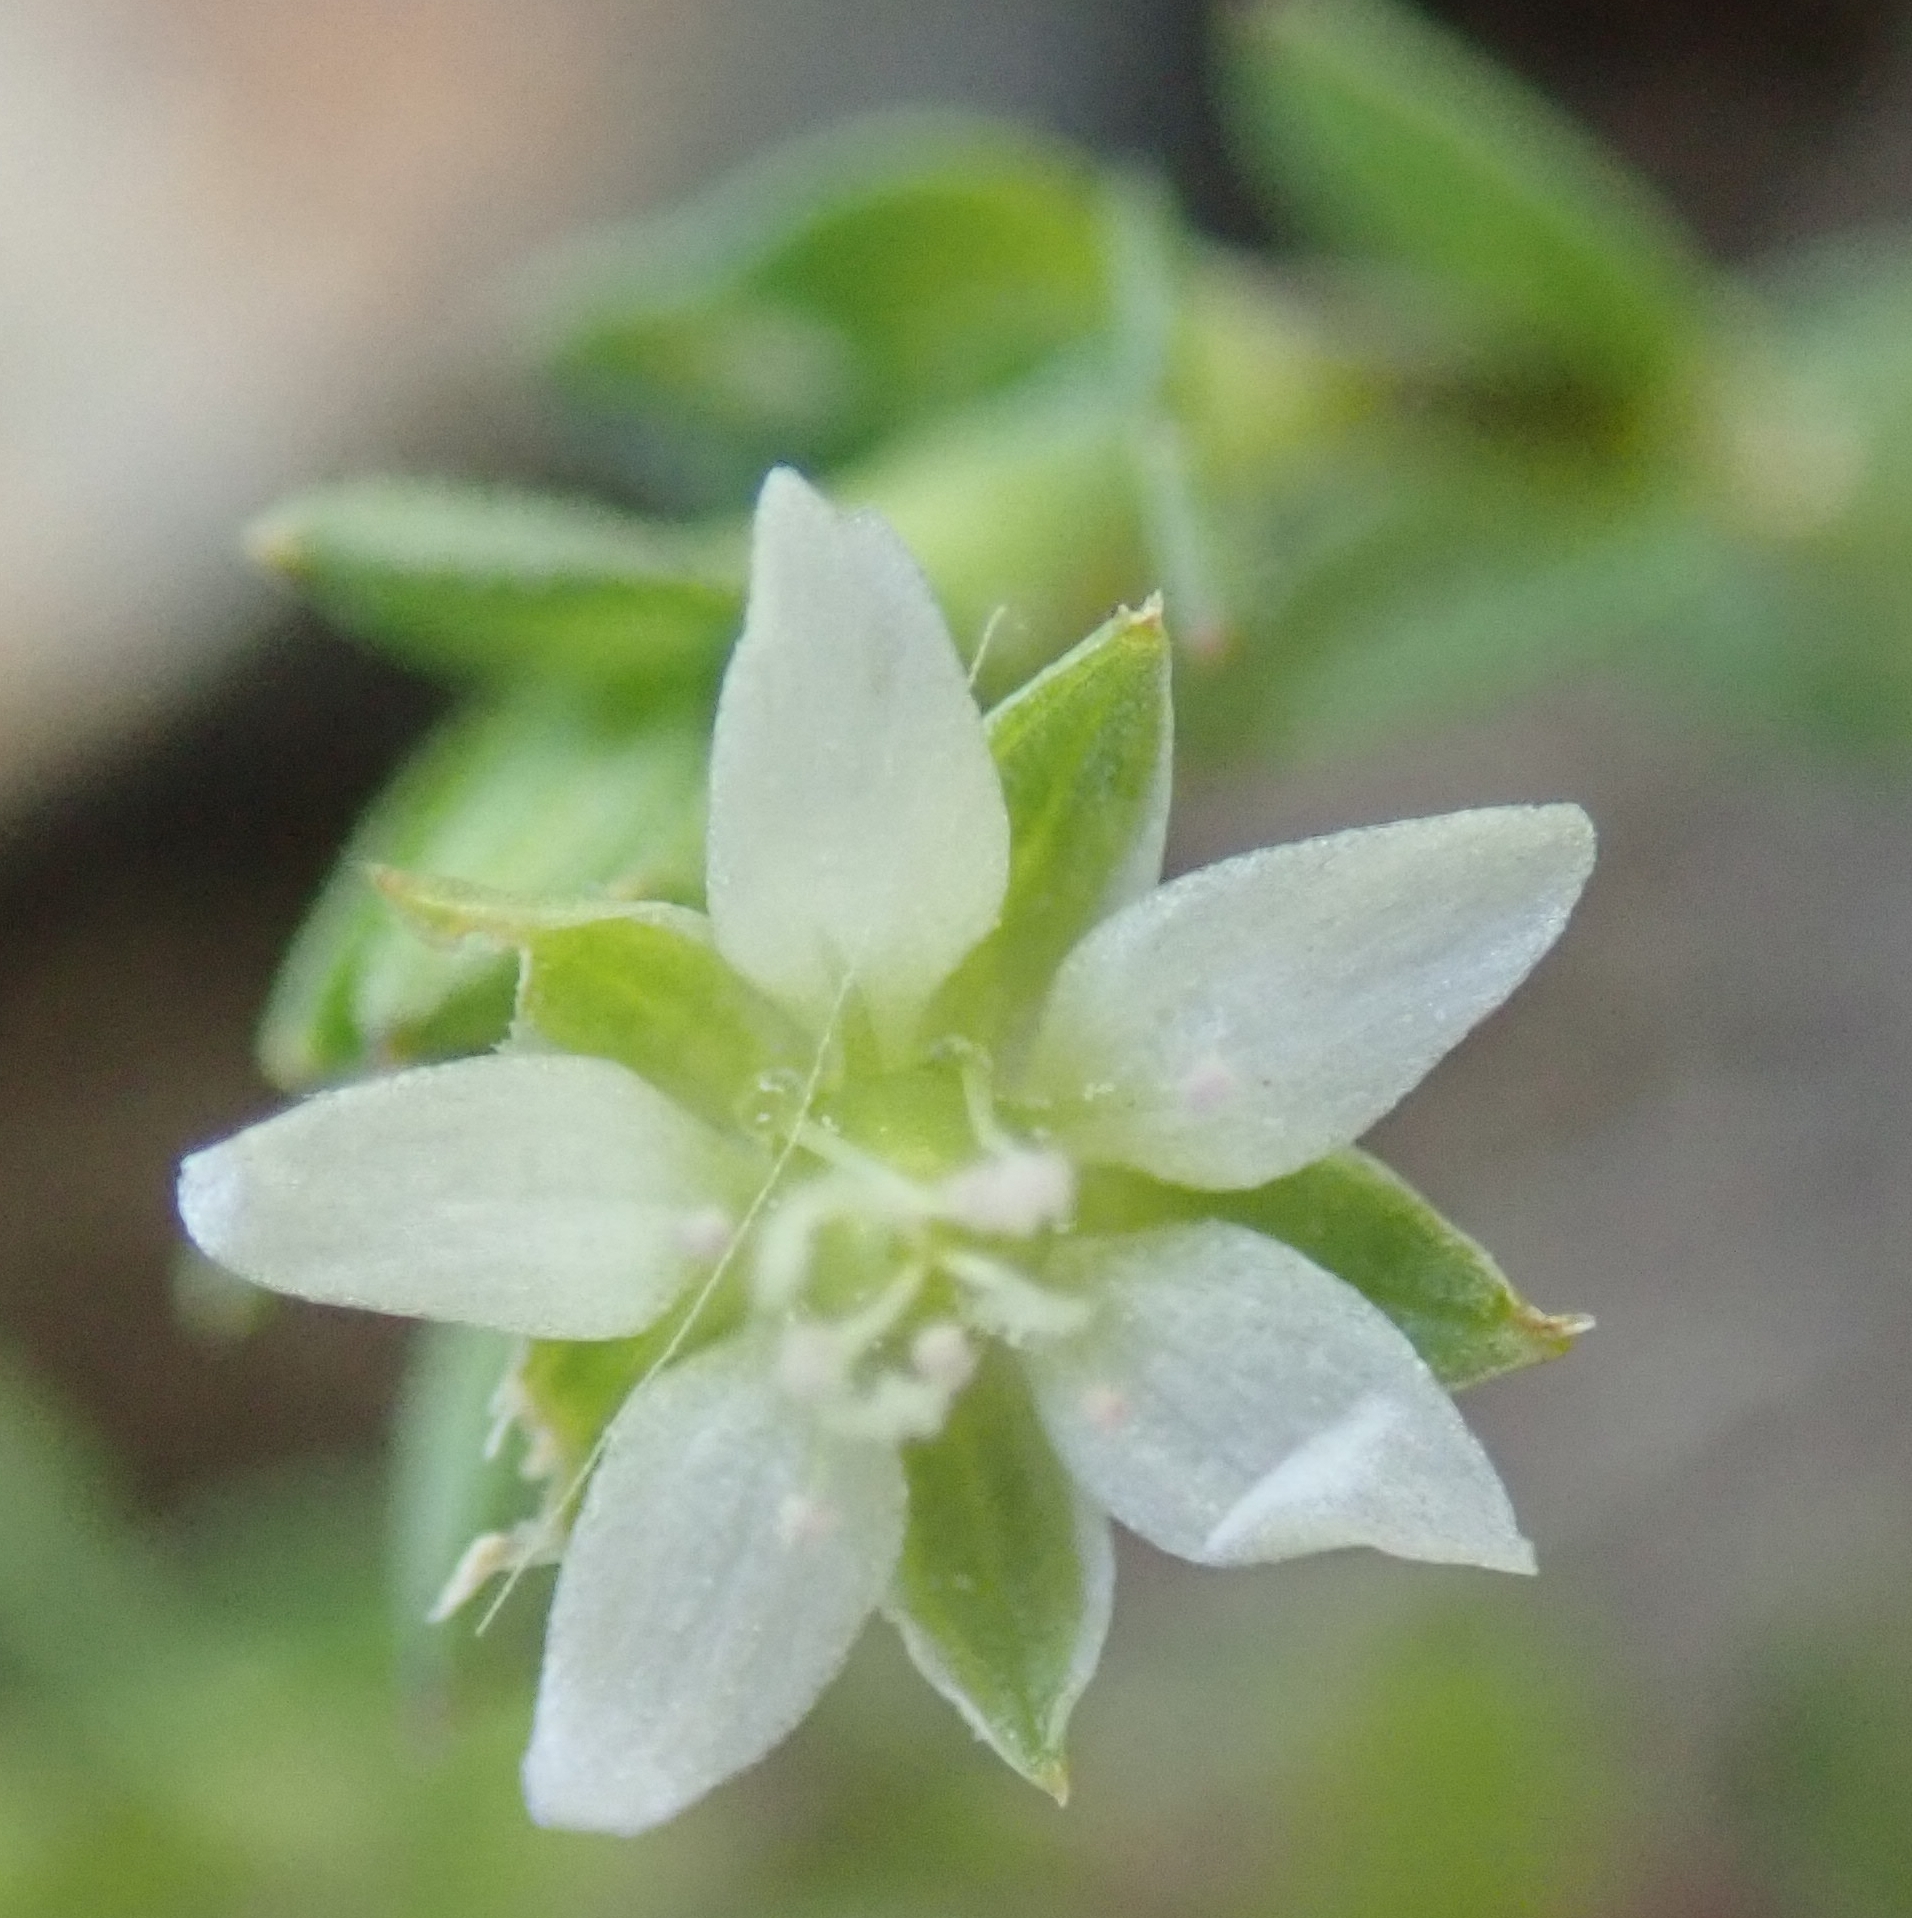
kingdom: Plantae
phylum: Tracheophyta
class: Magnoliopsida
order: Caryophyllales
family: Caryophyllaceae
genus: Arenaria
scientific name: Arenaria serpyllifolia
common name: Thyme-leaved sandwort
